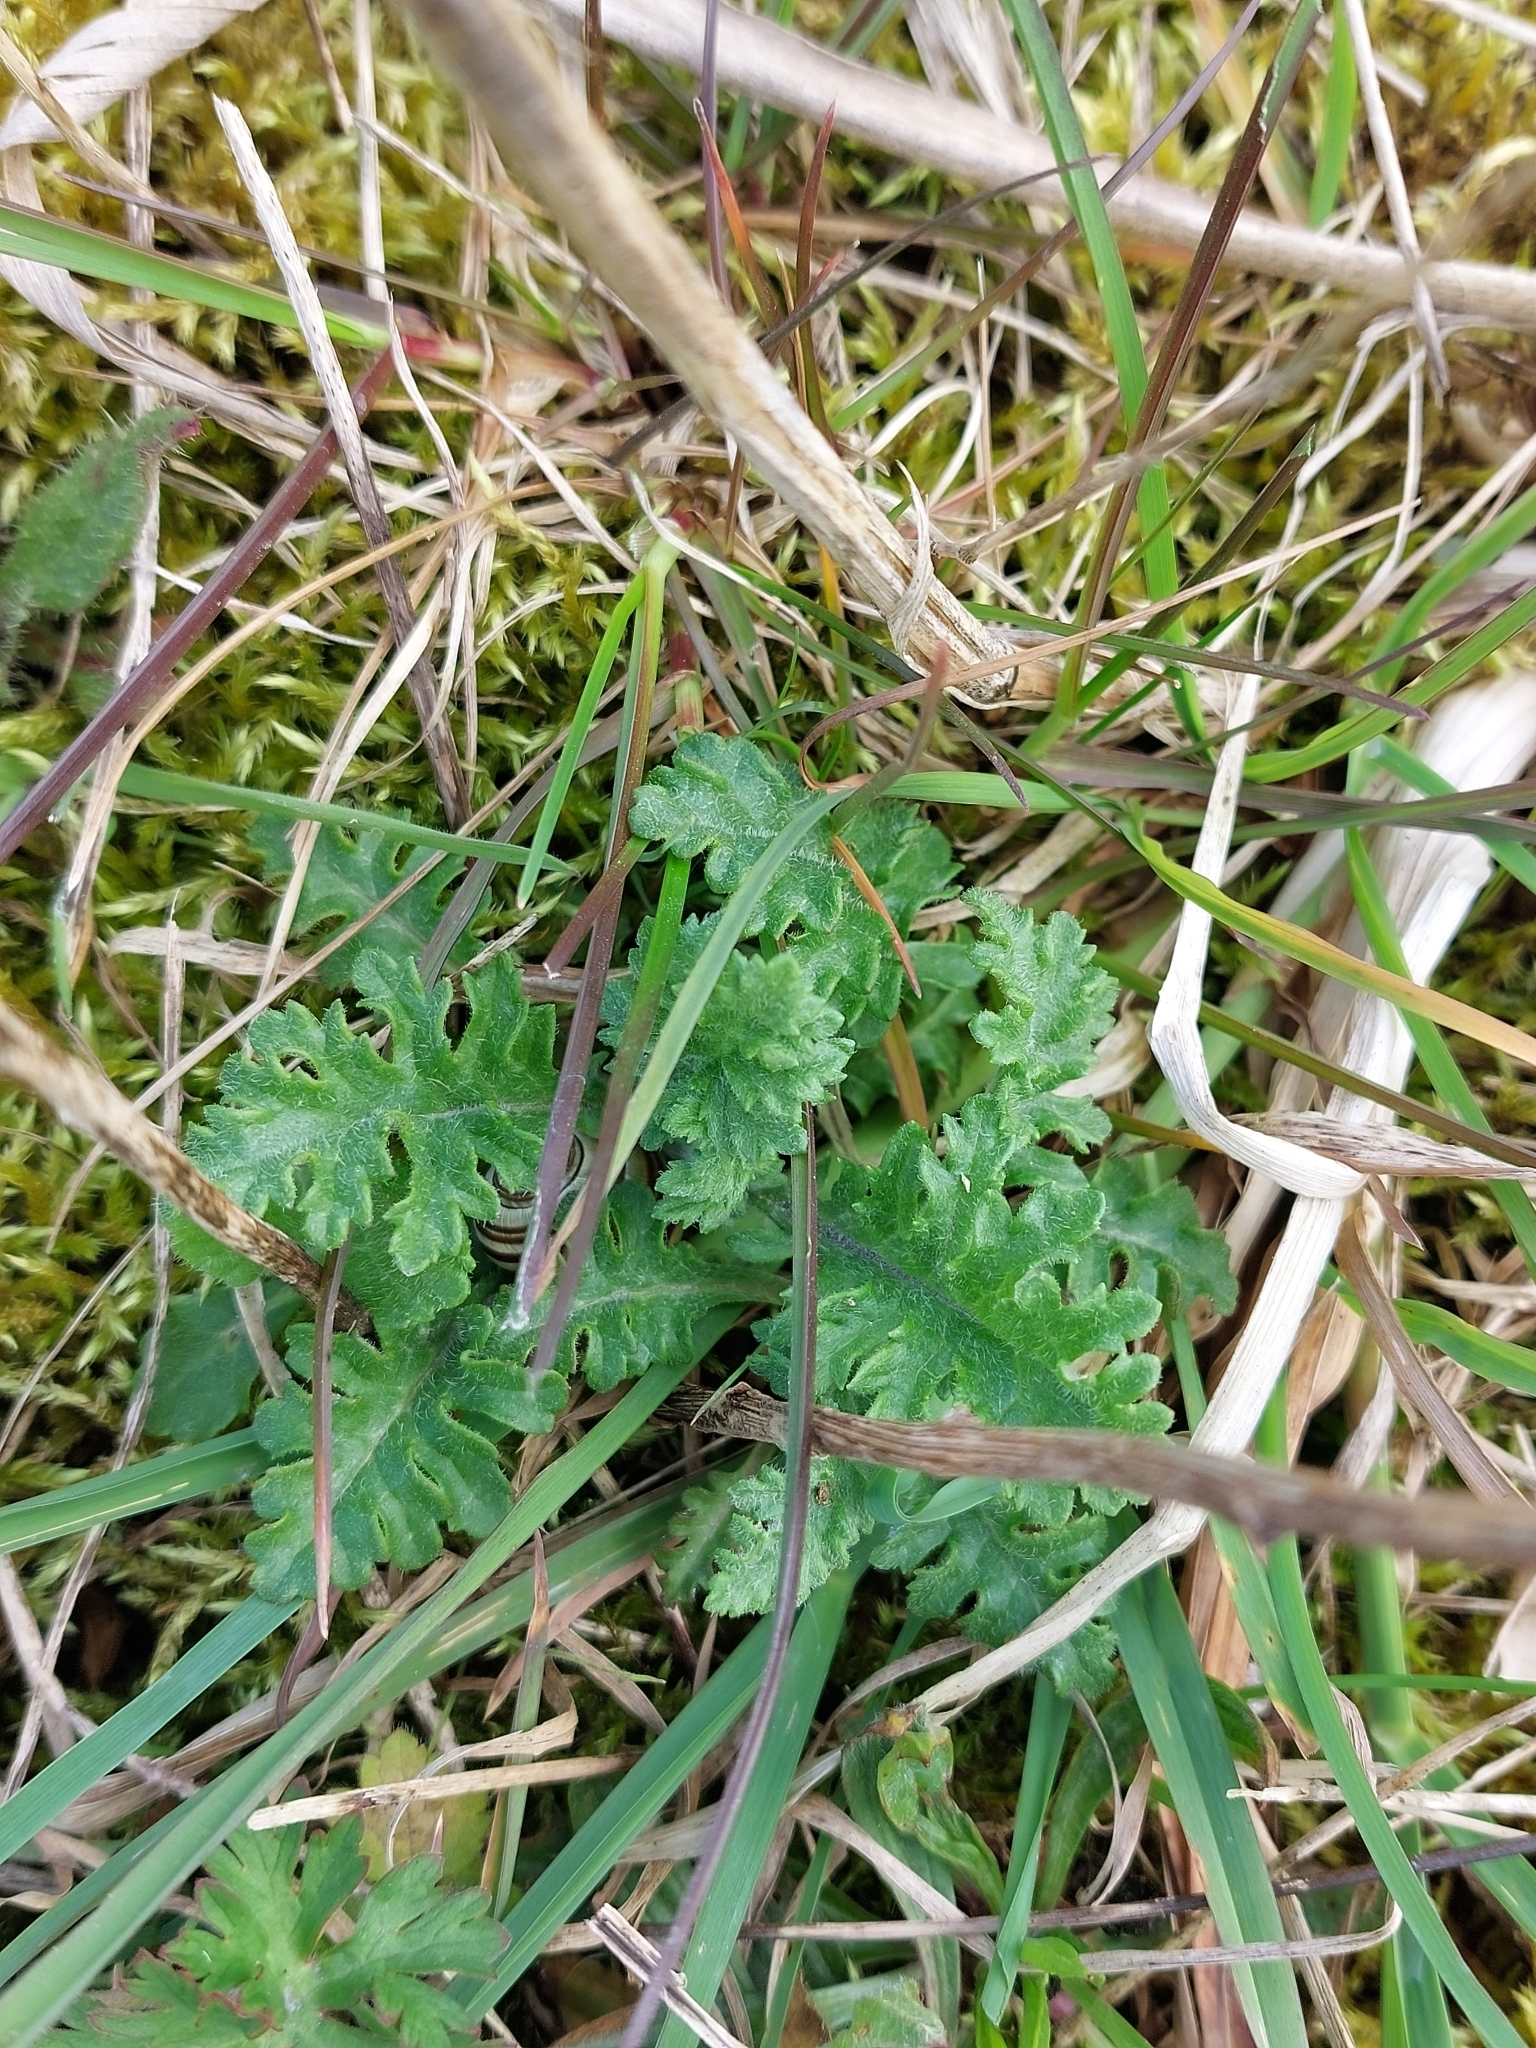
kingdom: Plantae
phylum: Tracheophyta
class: Magnoliopsida
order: Asterales
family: Asteraceae
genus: Jacobaea
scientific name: Jacobaea vulgaris
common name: Stinking willie
